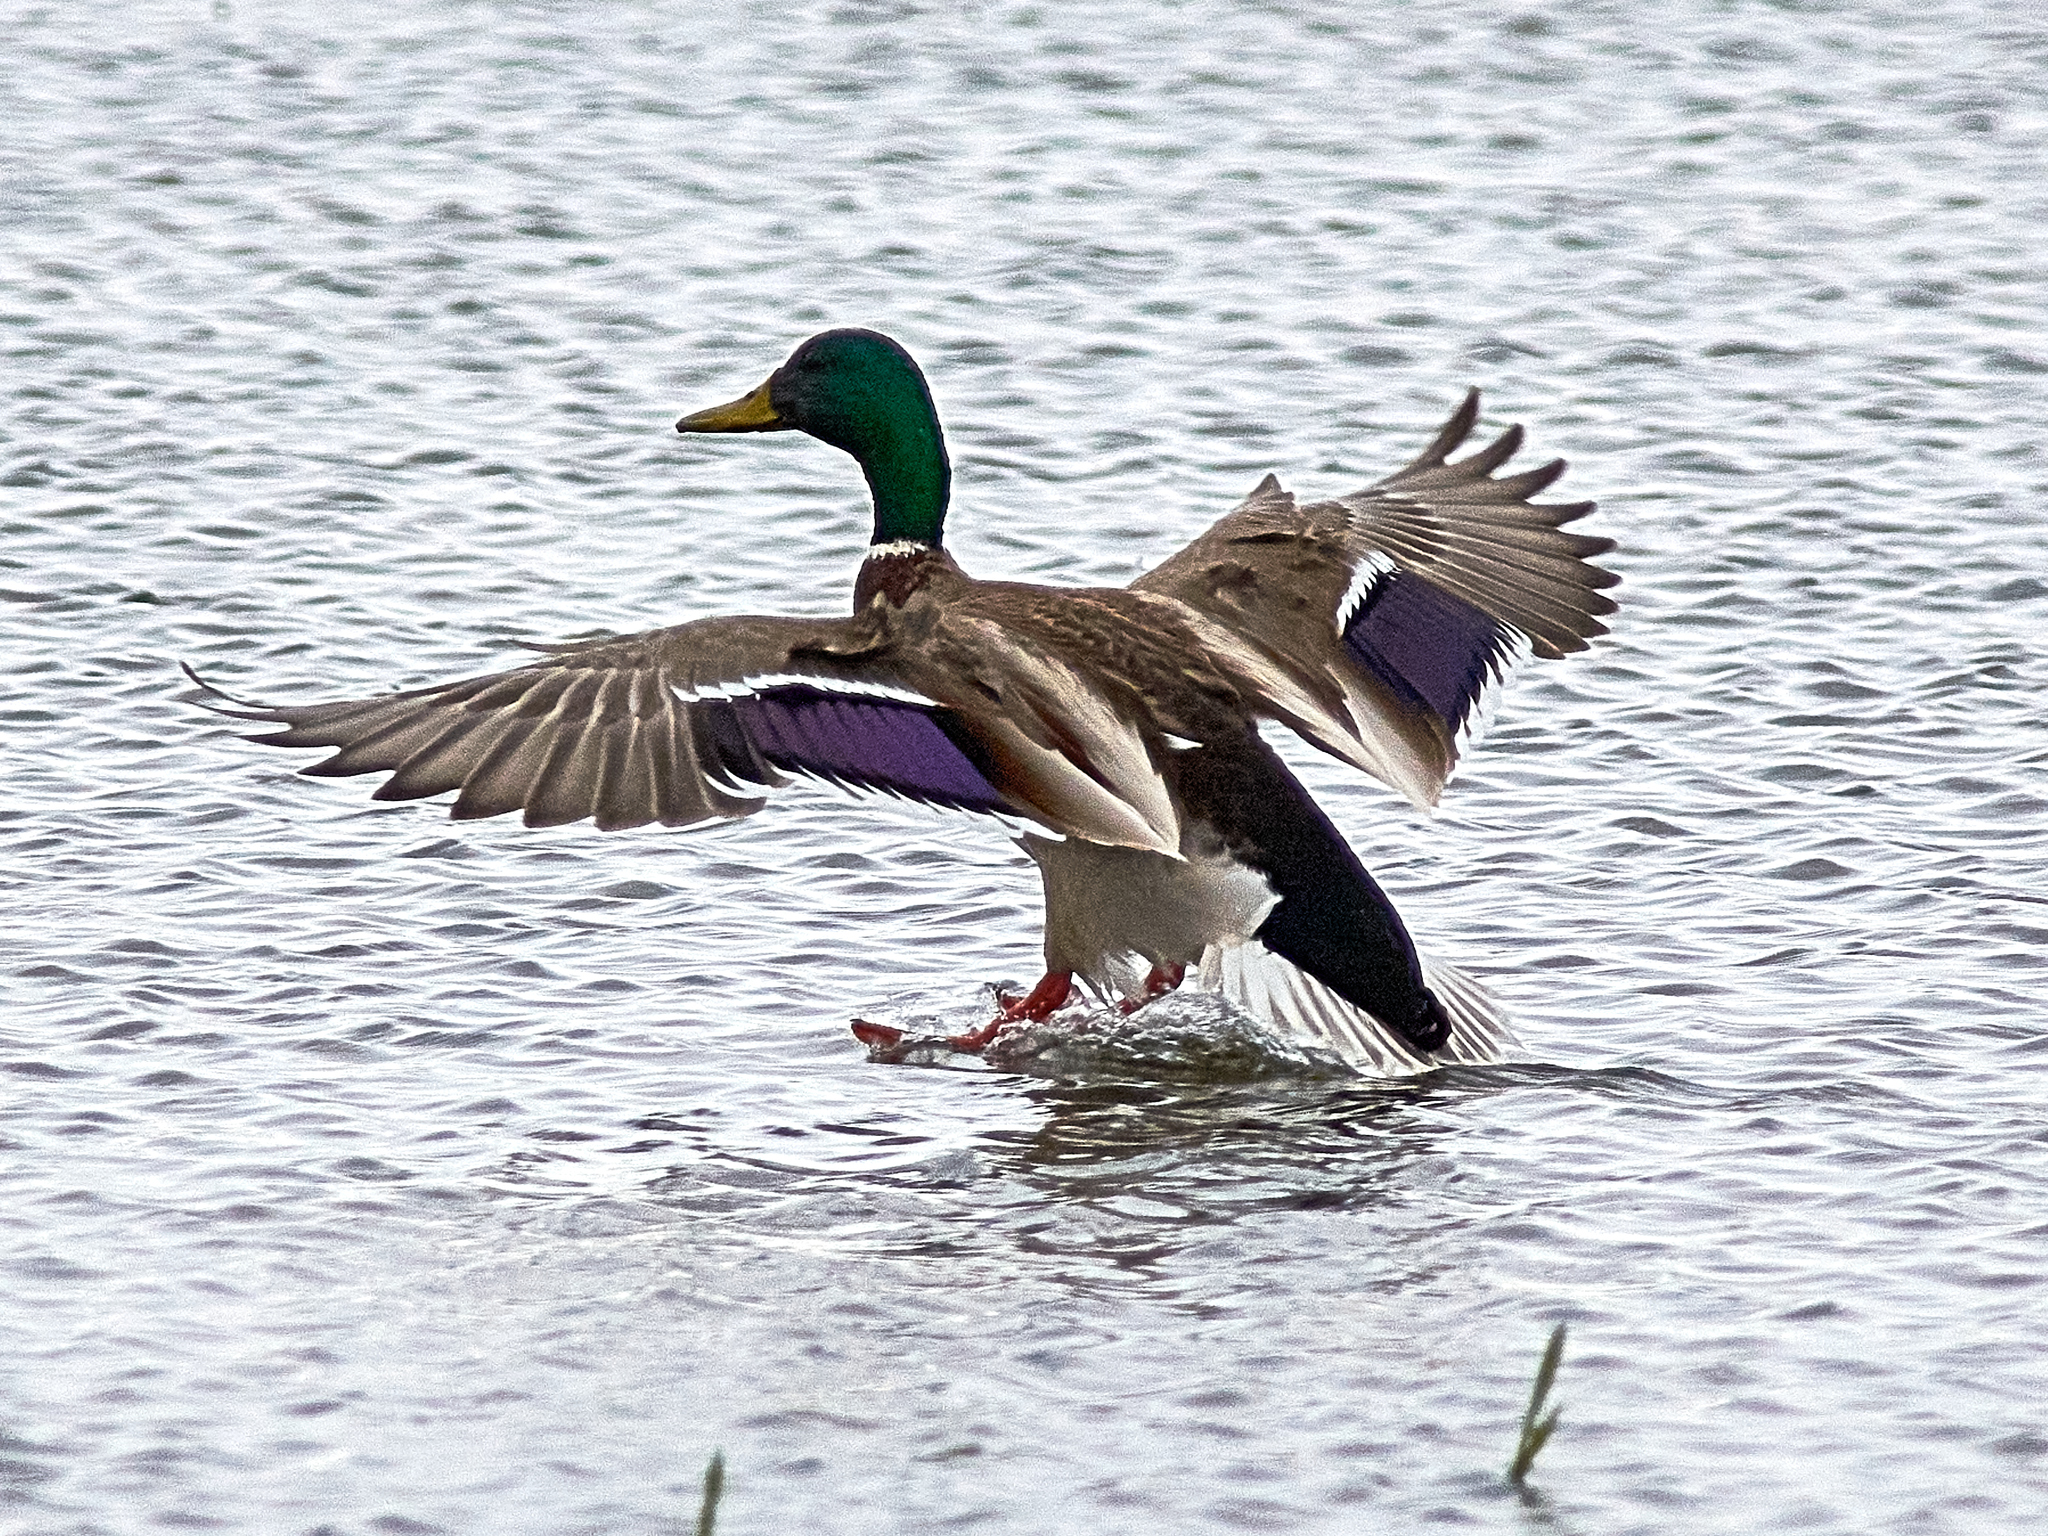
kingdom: Animalia
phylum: Chordata
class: Aves
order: Anseriformes
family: Anatidae
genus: Anas
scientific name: Anas platyrhynchos
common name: Mallard
